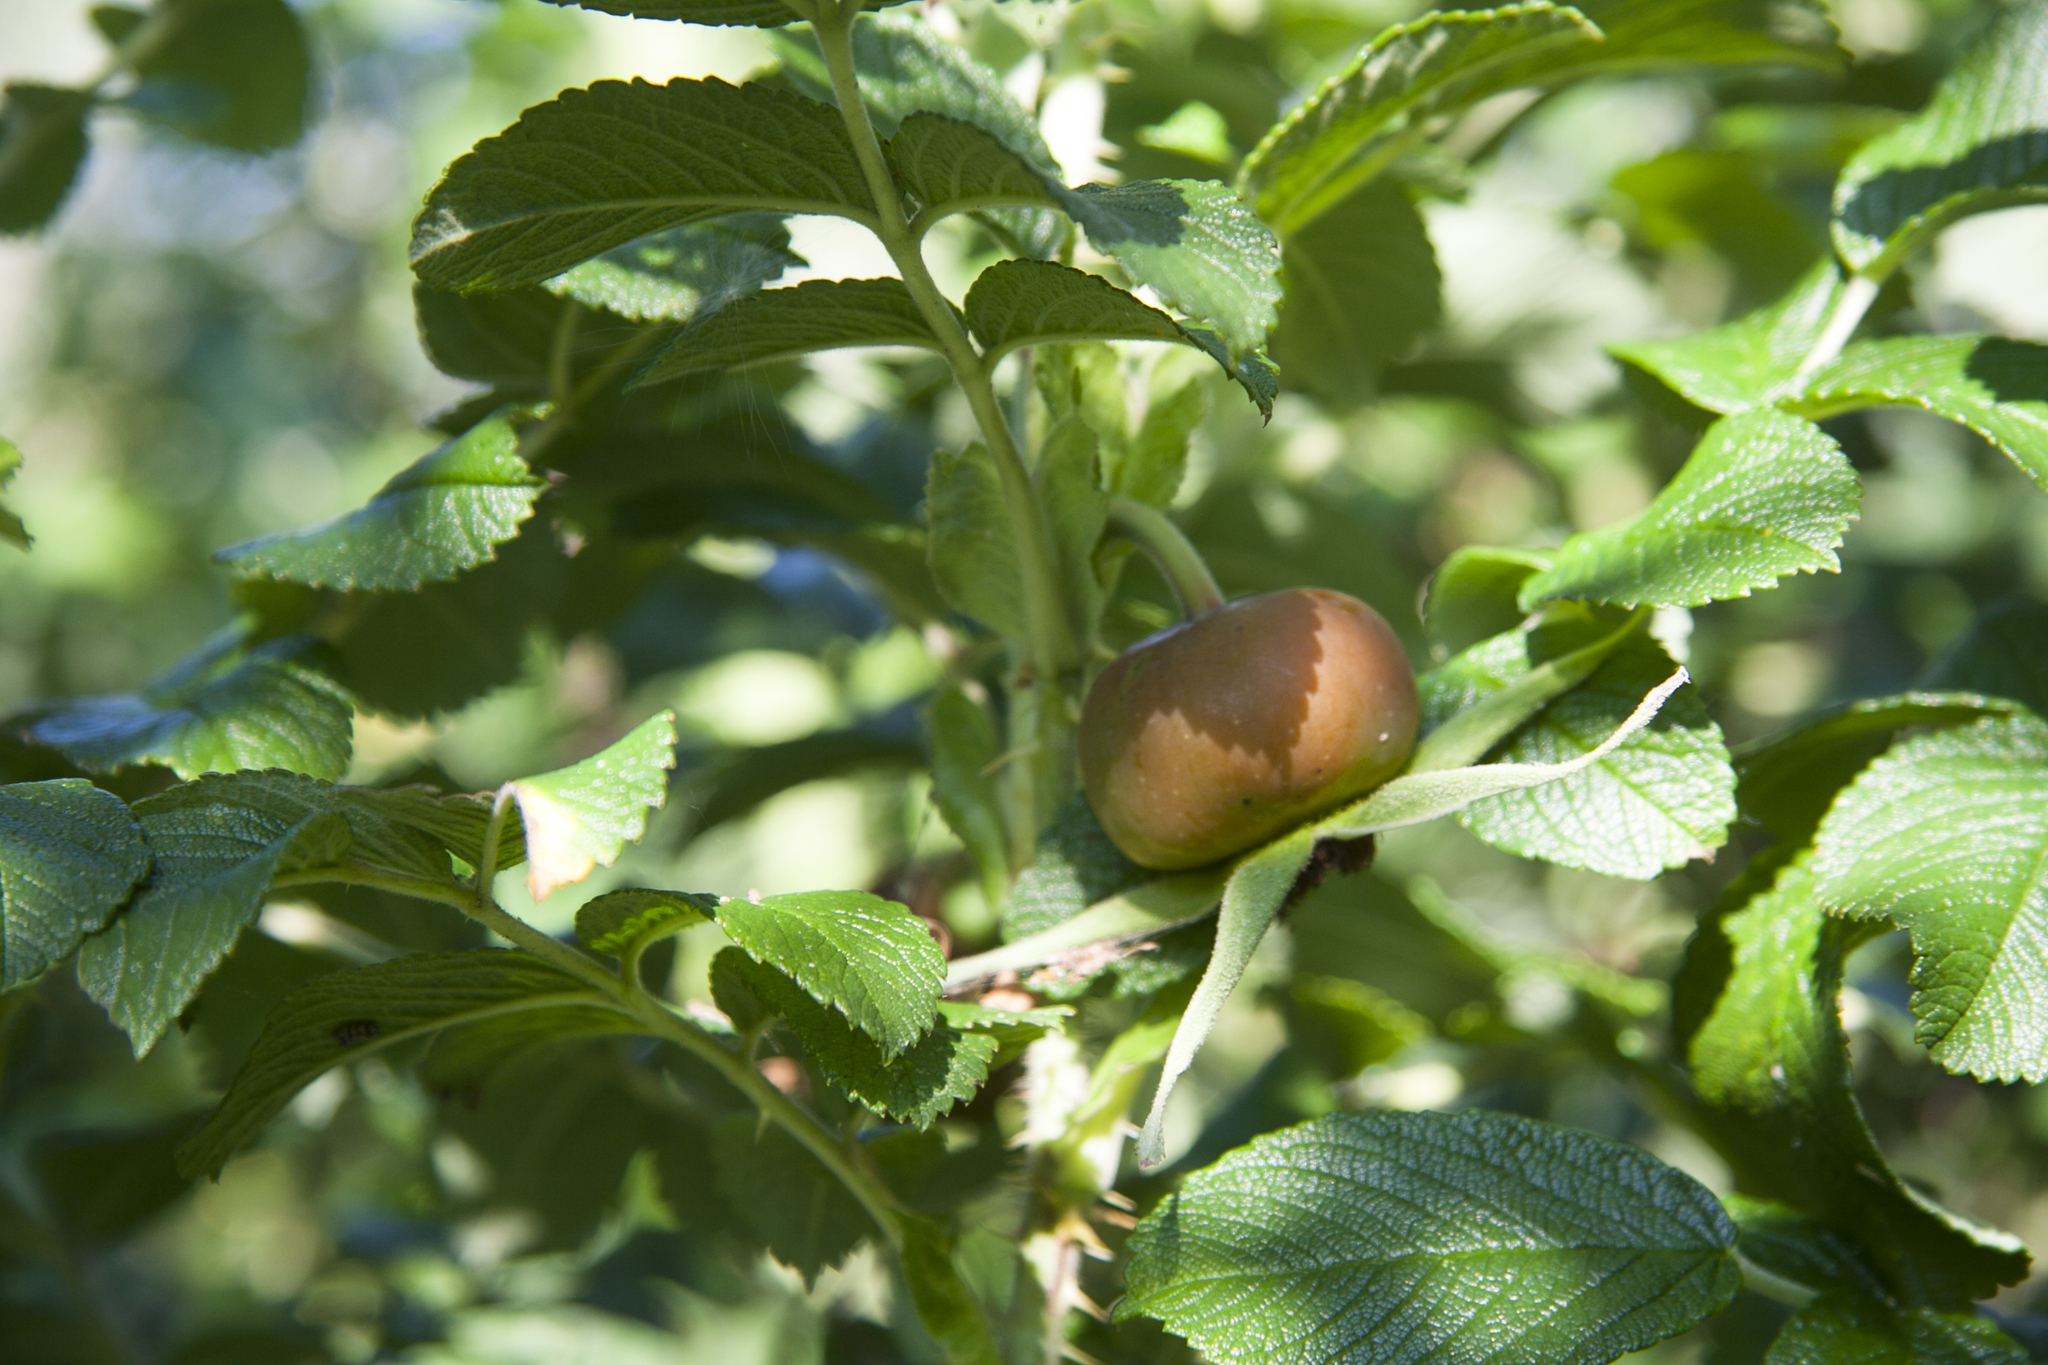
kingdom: Plantae
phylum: Tracheophyta
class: Magnoliopsida
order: Rosales
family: Rosaceae
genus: Rosa
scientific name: Rosa rugosa
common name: Japanese rose
